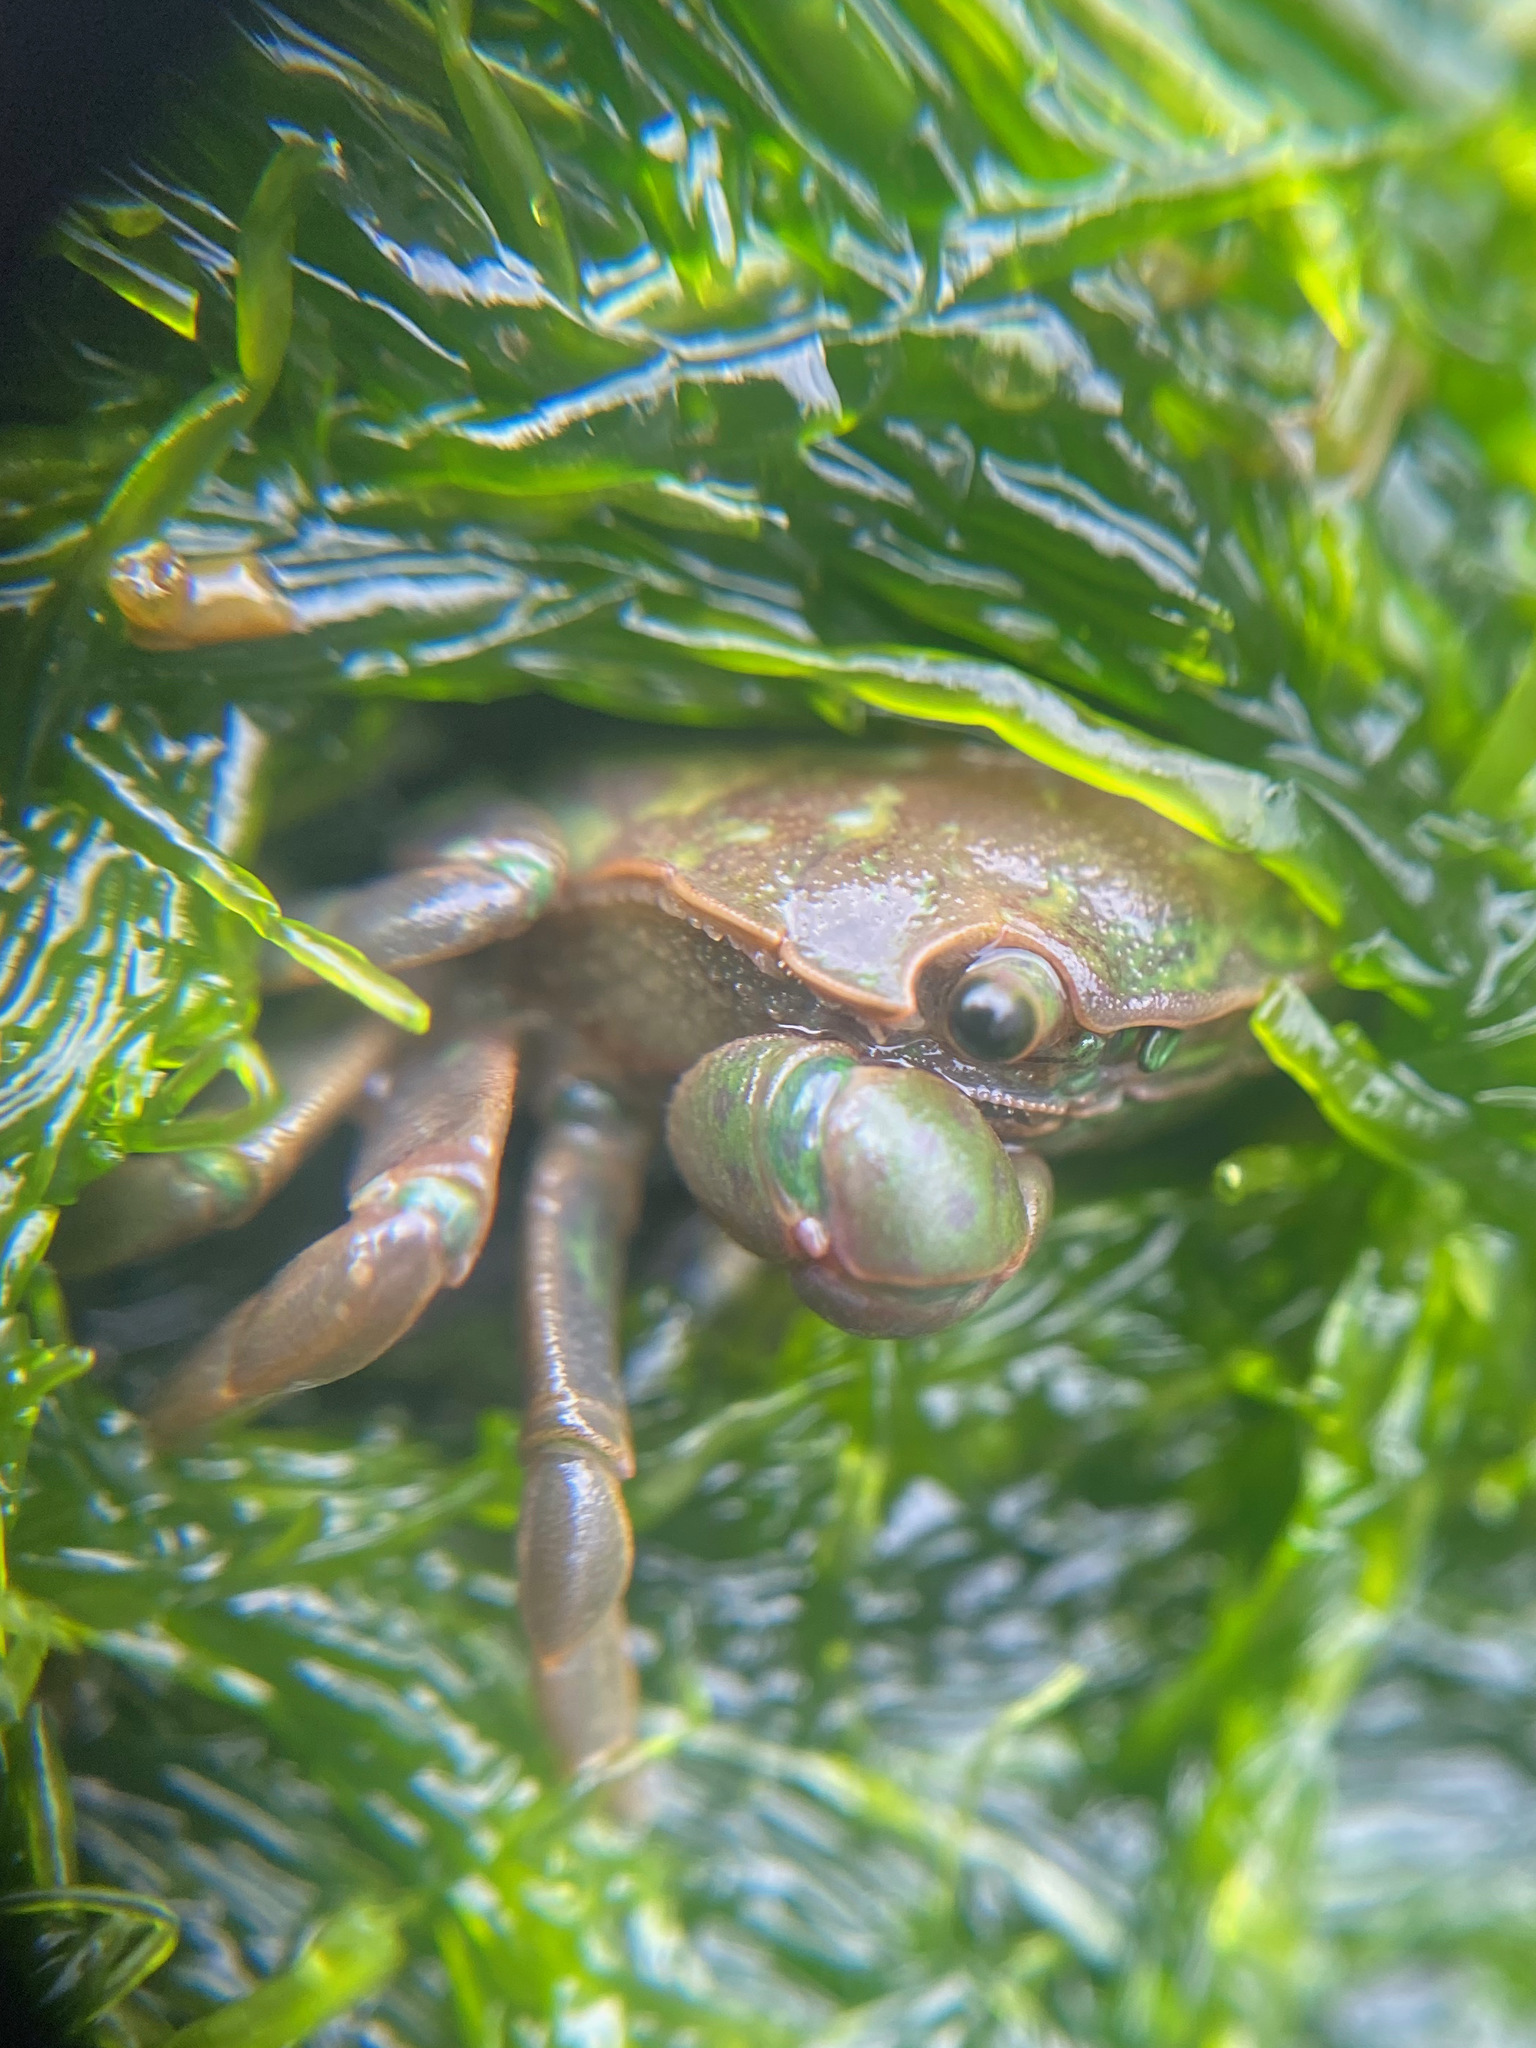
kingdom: Animalia
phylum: Arthropoda
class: Malacostraca
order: Decapoda
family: Varunidae
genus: Hemigrapsus
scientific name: Hemigrapsus nudus
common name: Purple shore crab
